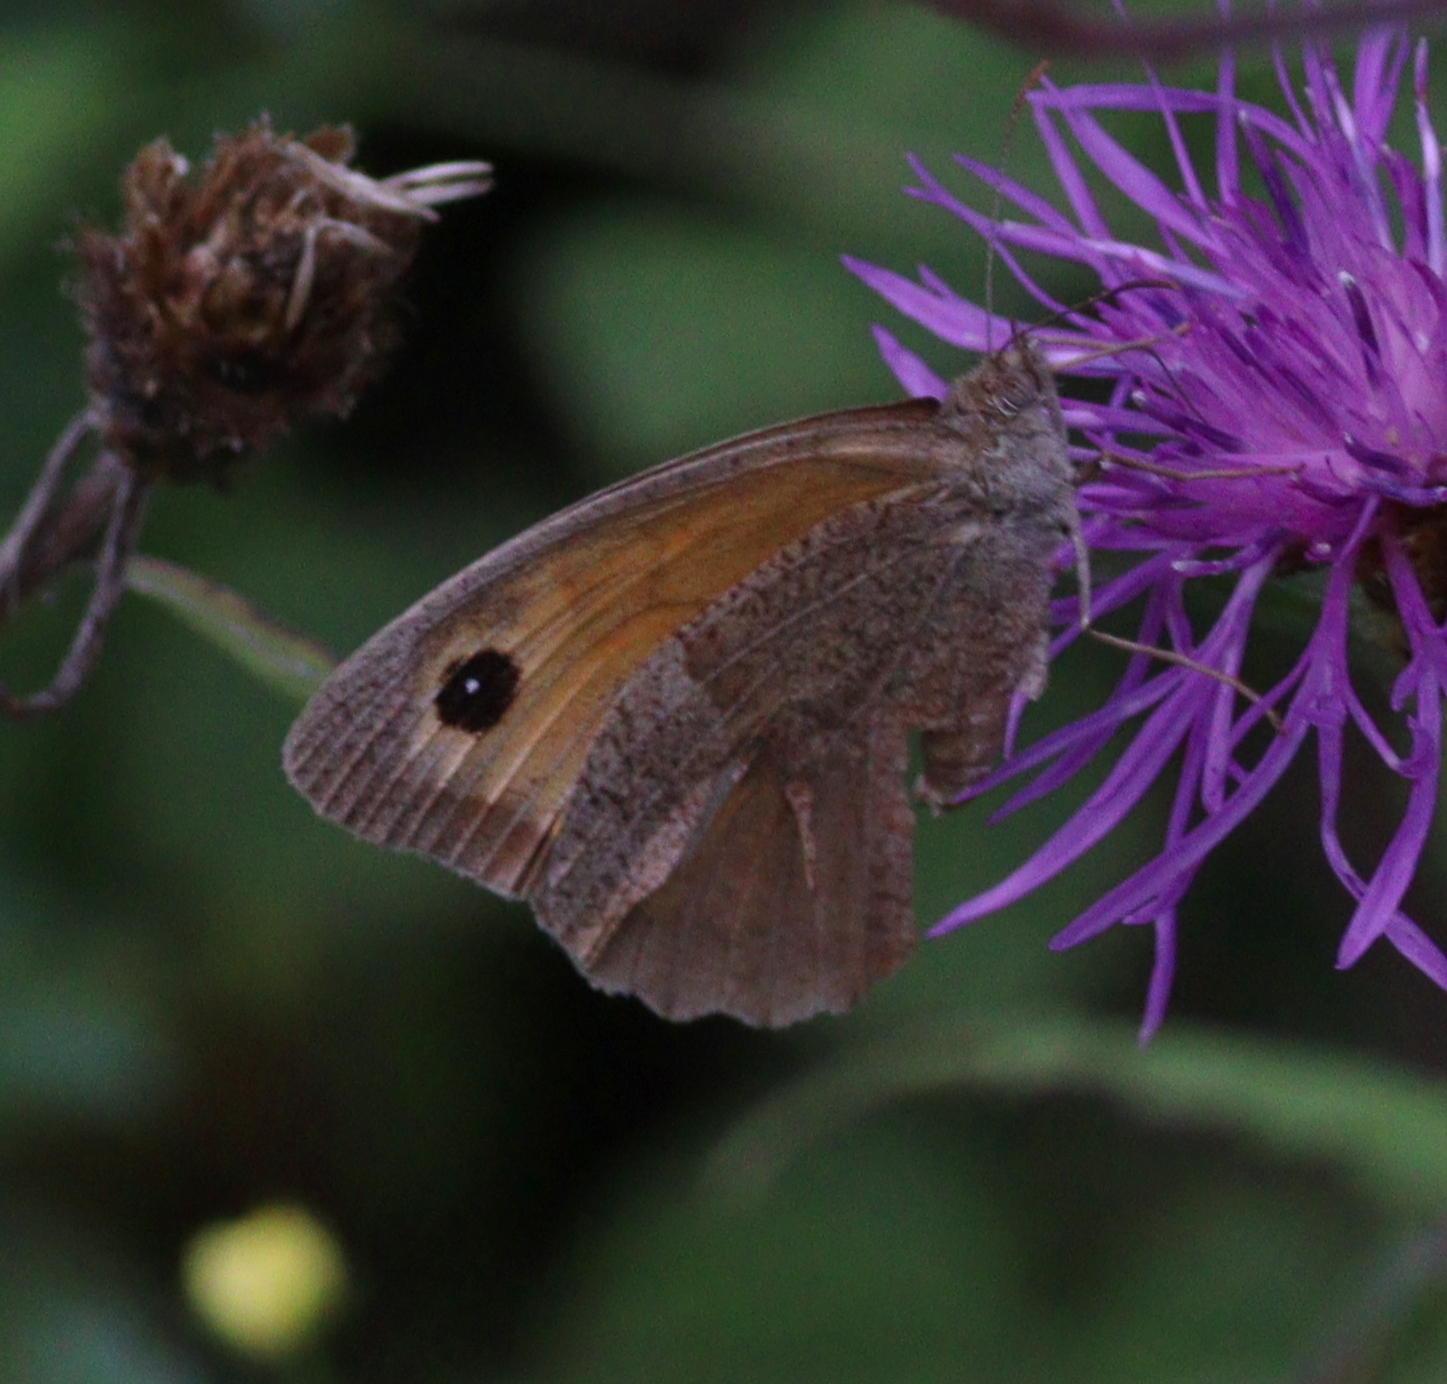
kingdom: Animalia
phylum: Arthropoda
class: Insecta
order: Lepidoptera
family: Nymphalidae
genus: Maniola
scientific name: Maniola jurtina
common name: Meadow brown
